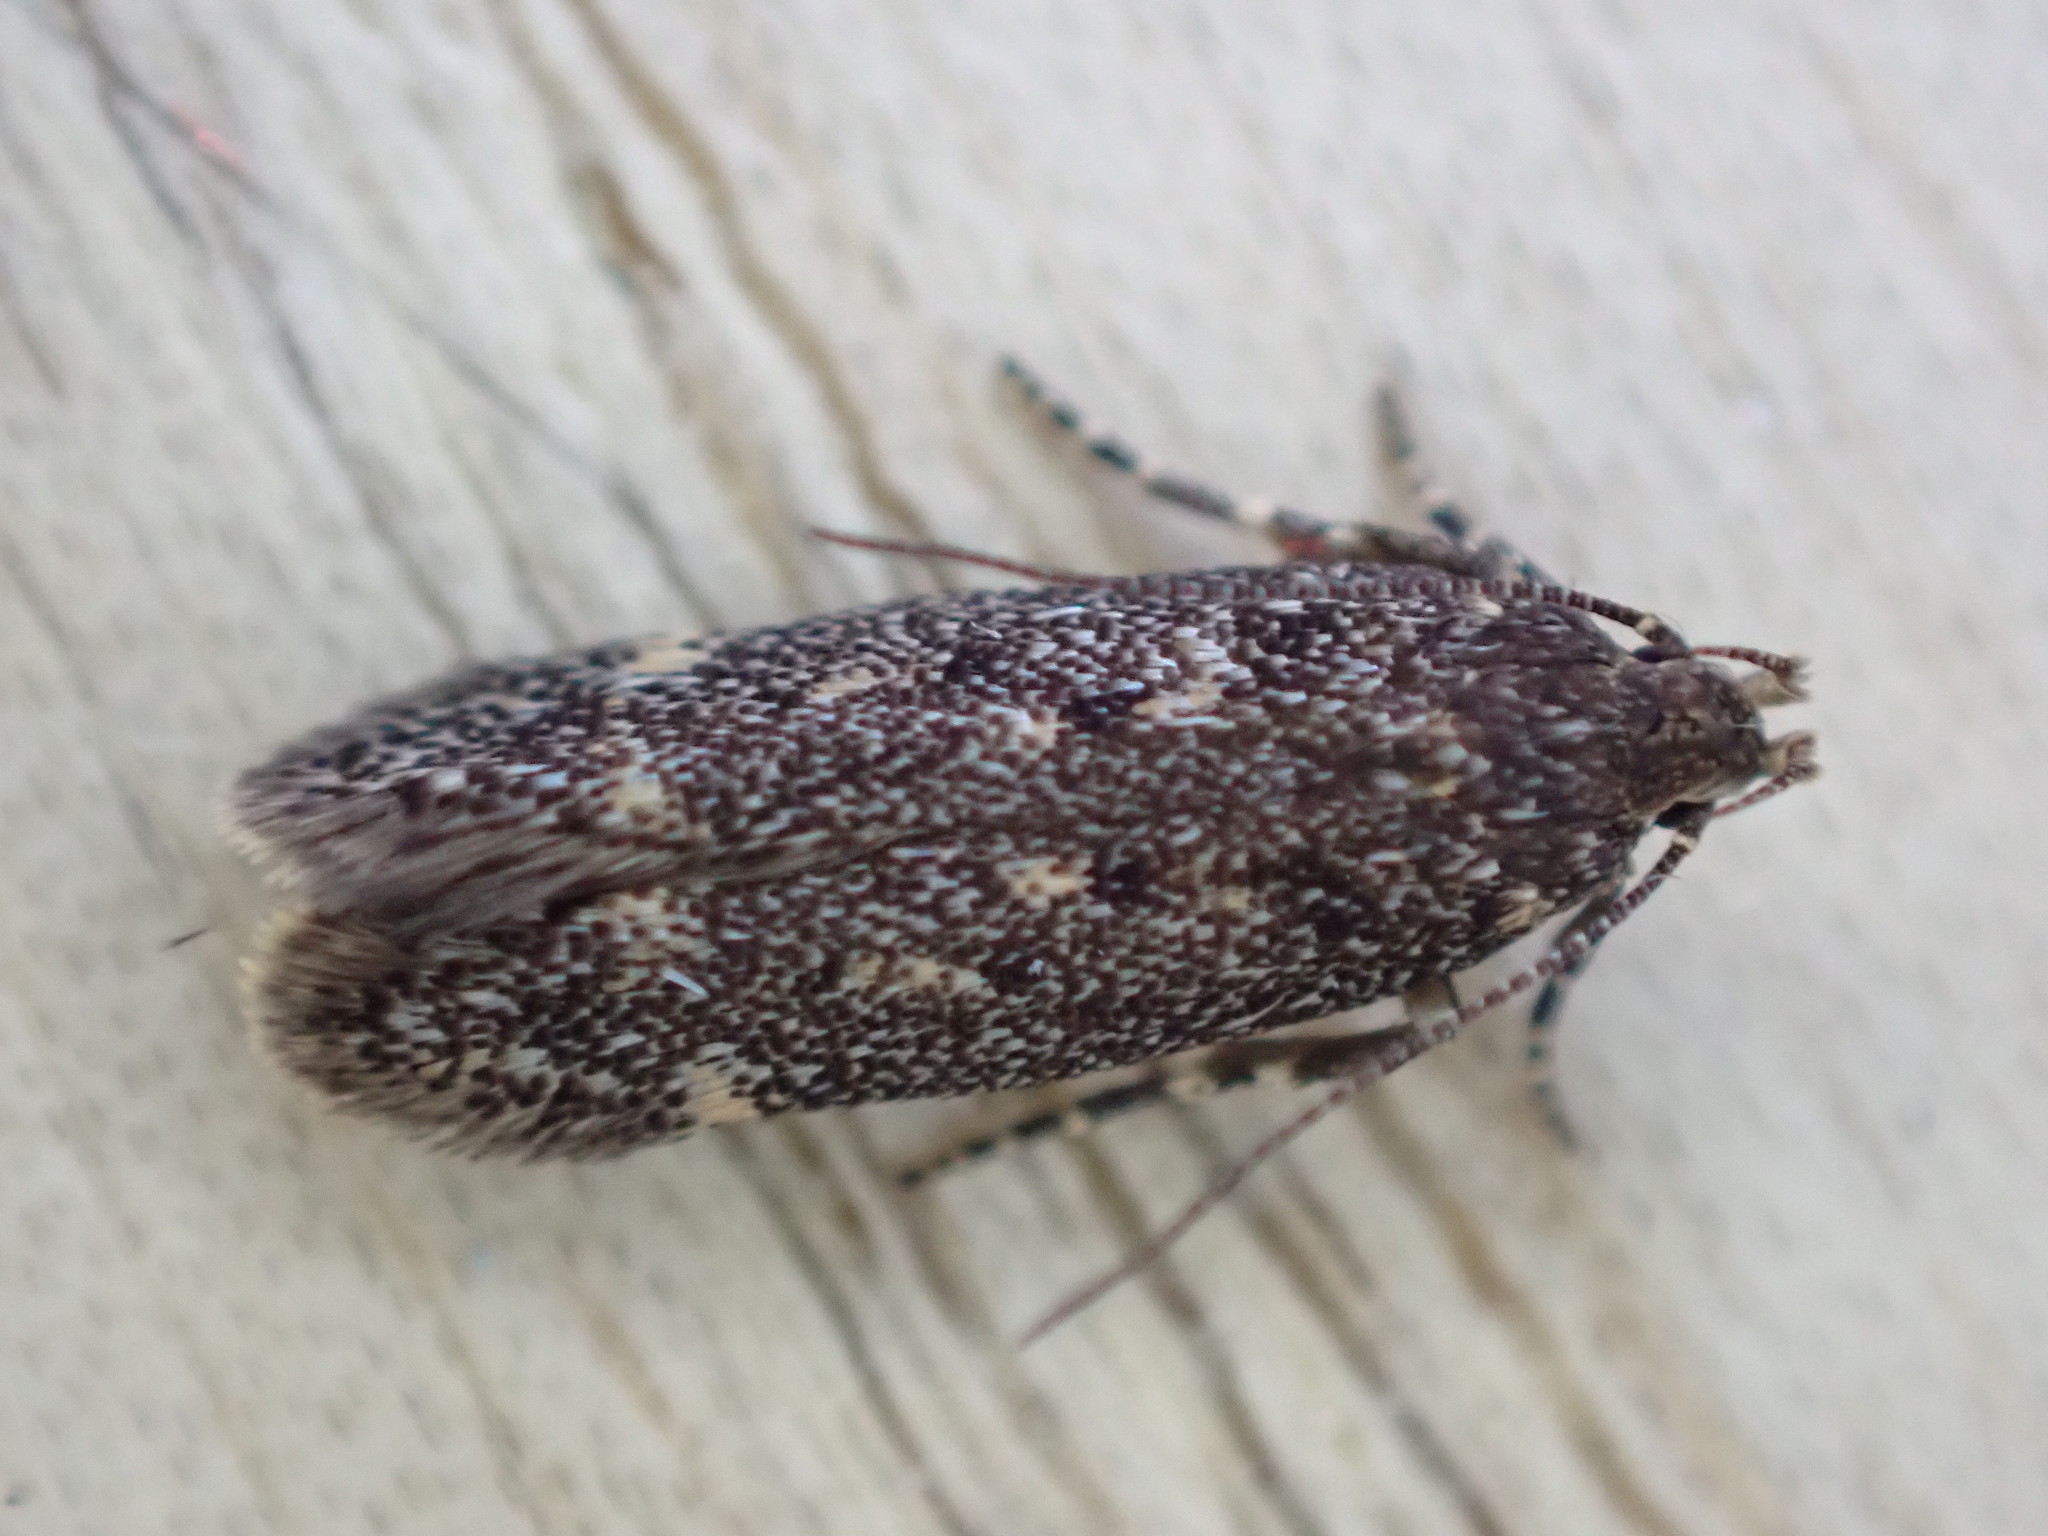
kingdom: Animalia
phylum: Arthropoda
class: Insecta
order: Lepidoptera
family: Gelechiidae
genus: Bryotropha
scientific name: Bryotropha affinis
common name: Dark groundling
